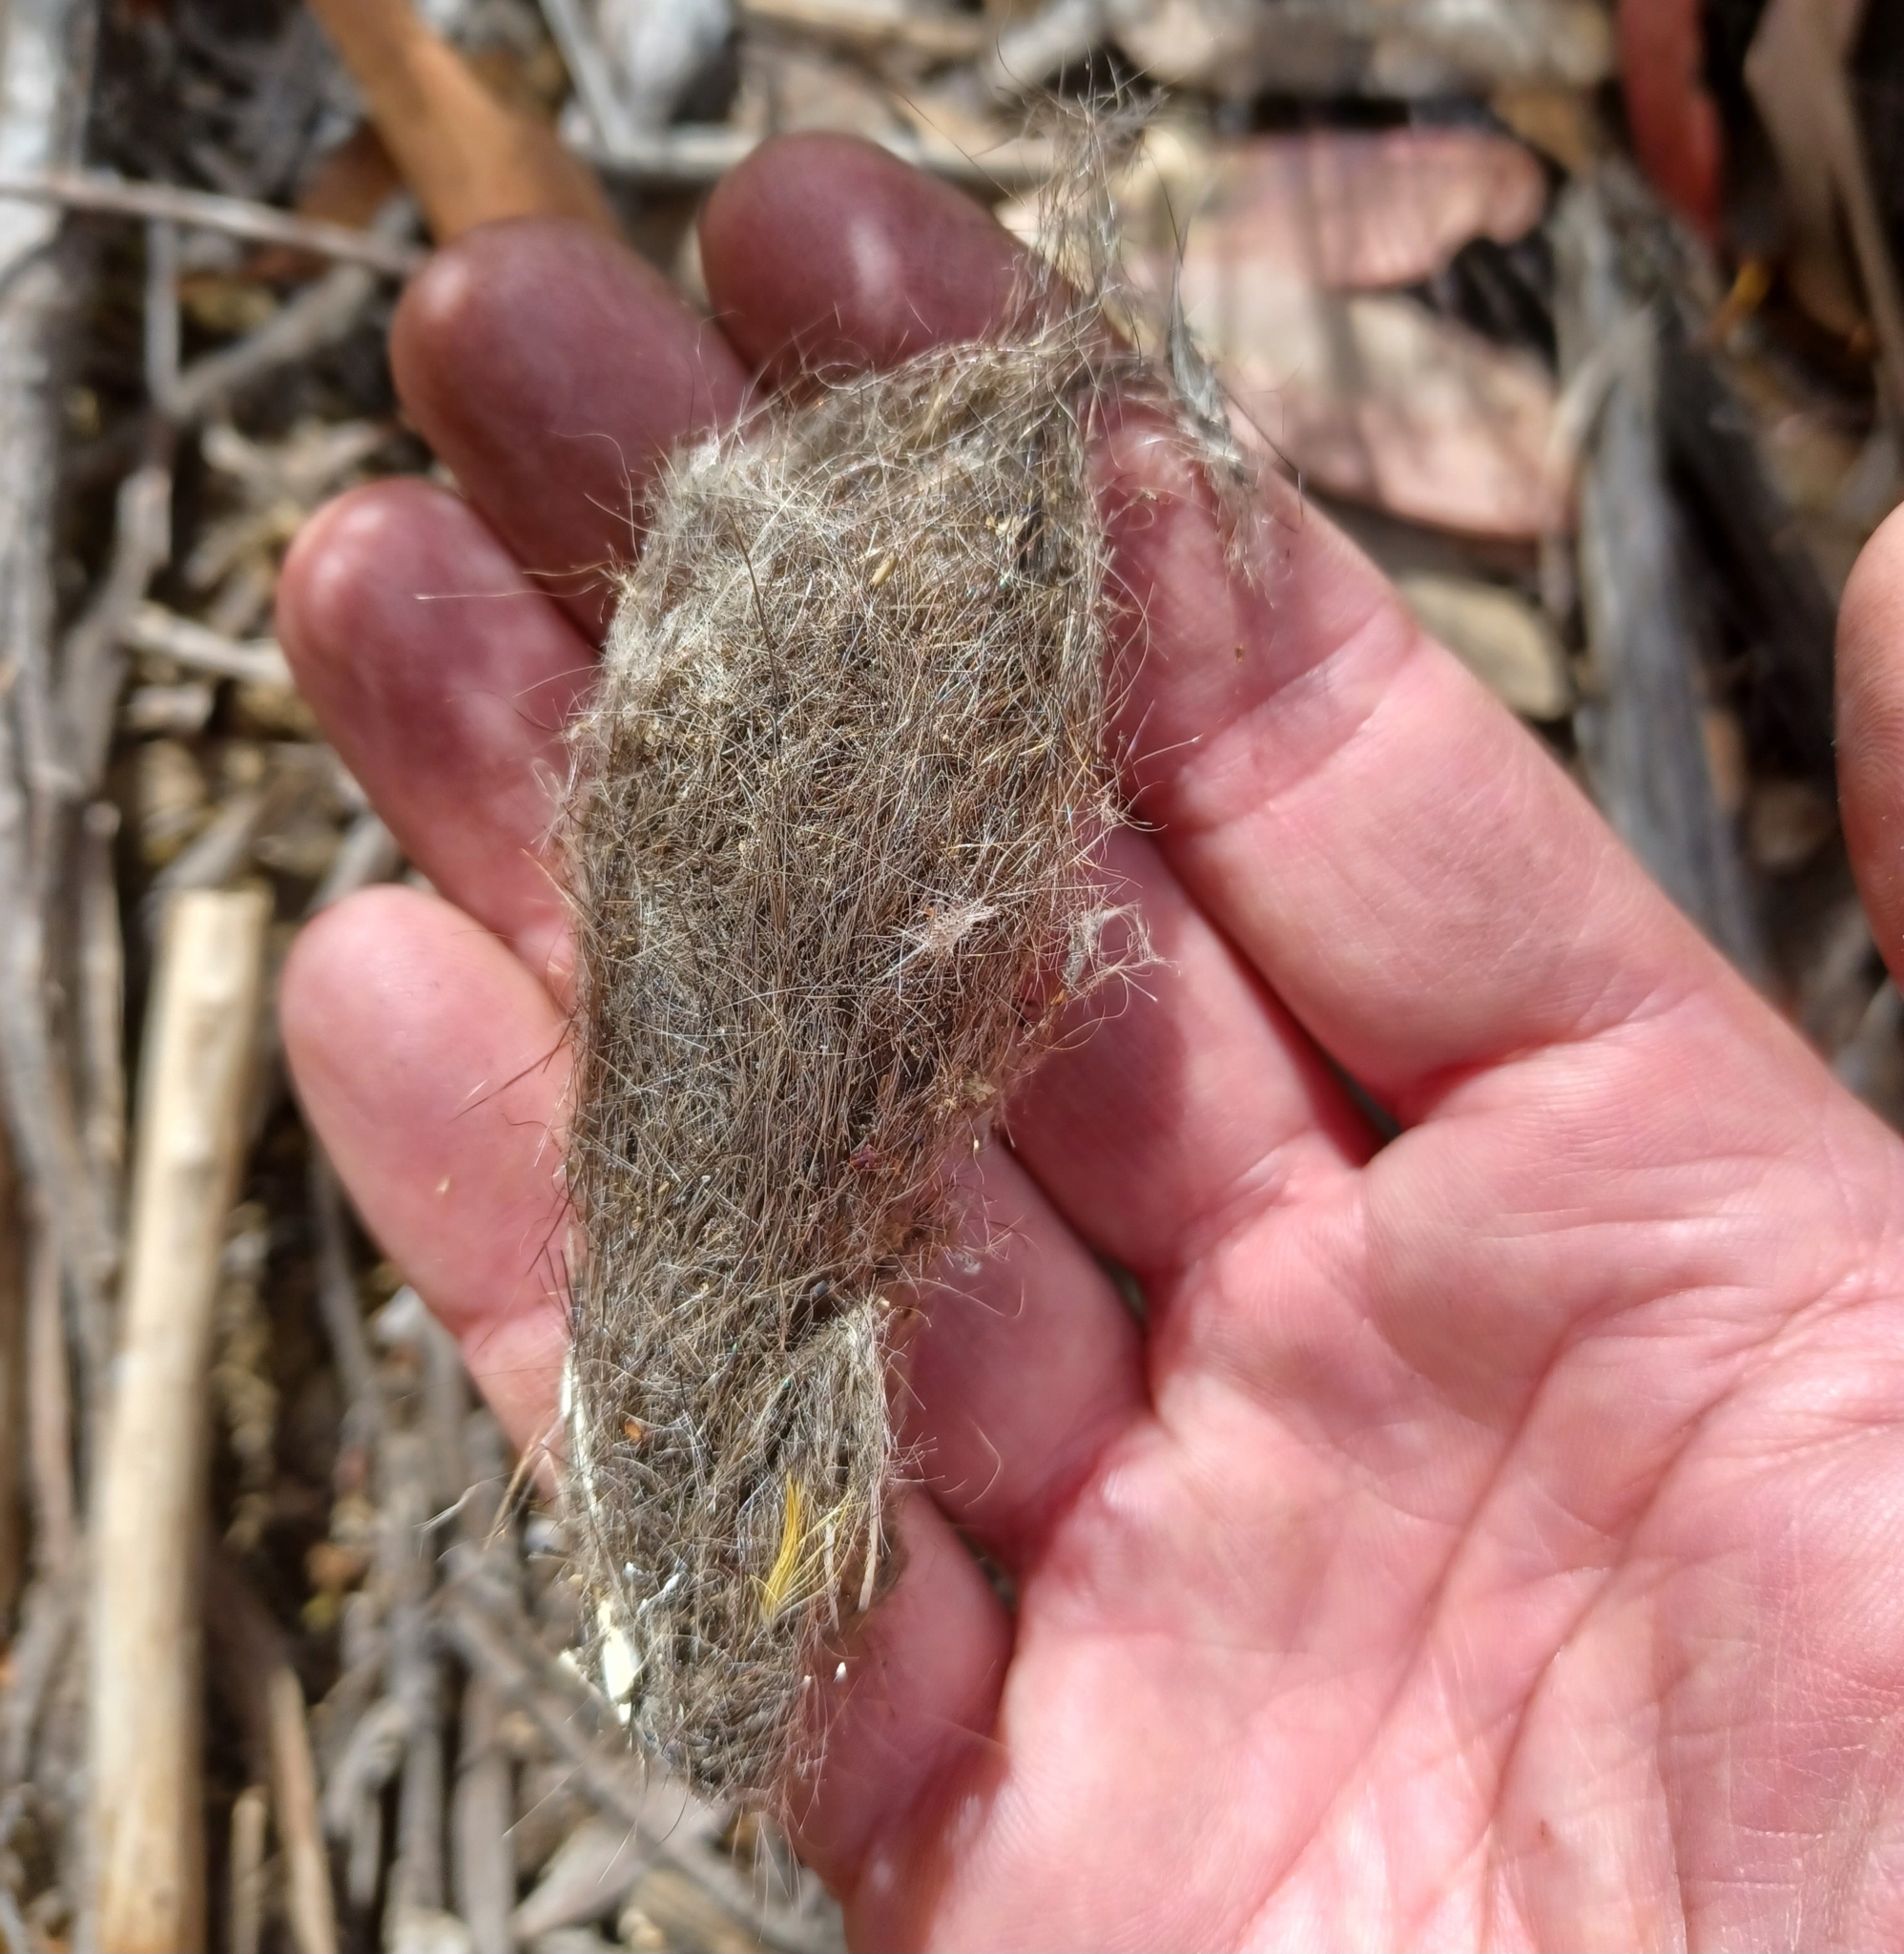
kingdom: Animalia
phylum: Chordata
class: Mammalia
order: Dasyuromorphia
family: Dasyuridae
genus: Sarcophilus
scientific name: Sarcophilus harrisii
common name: Tasmanian devil
